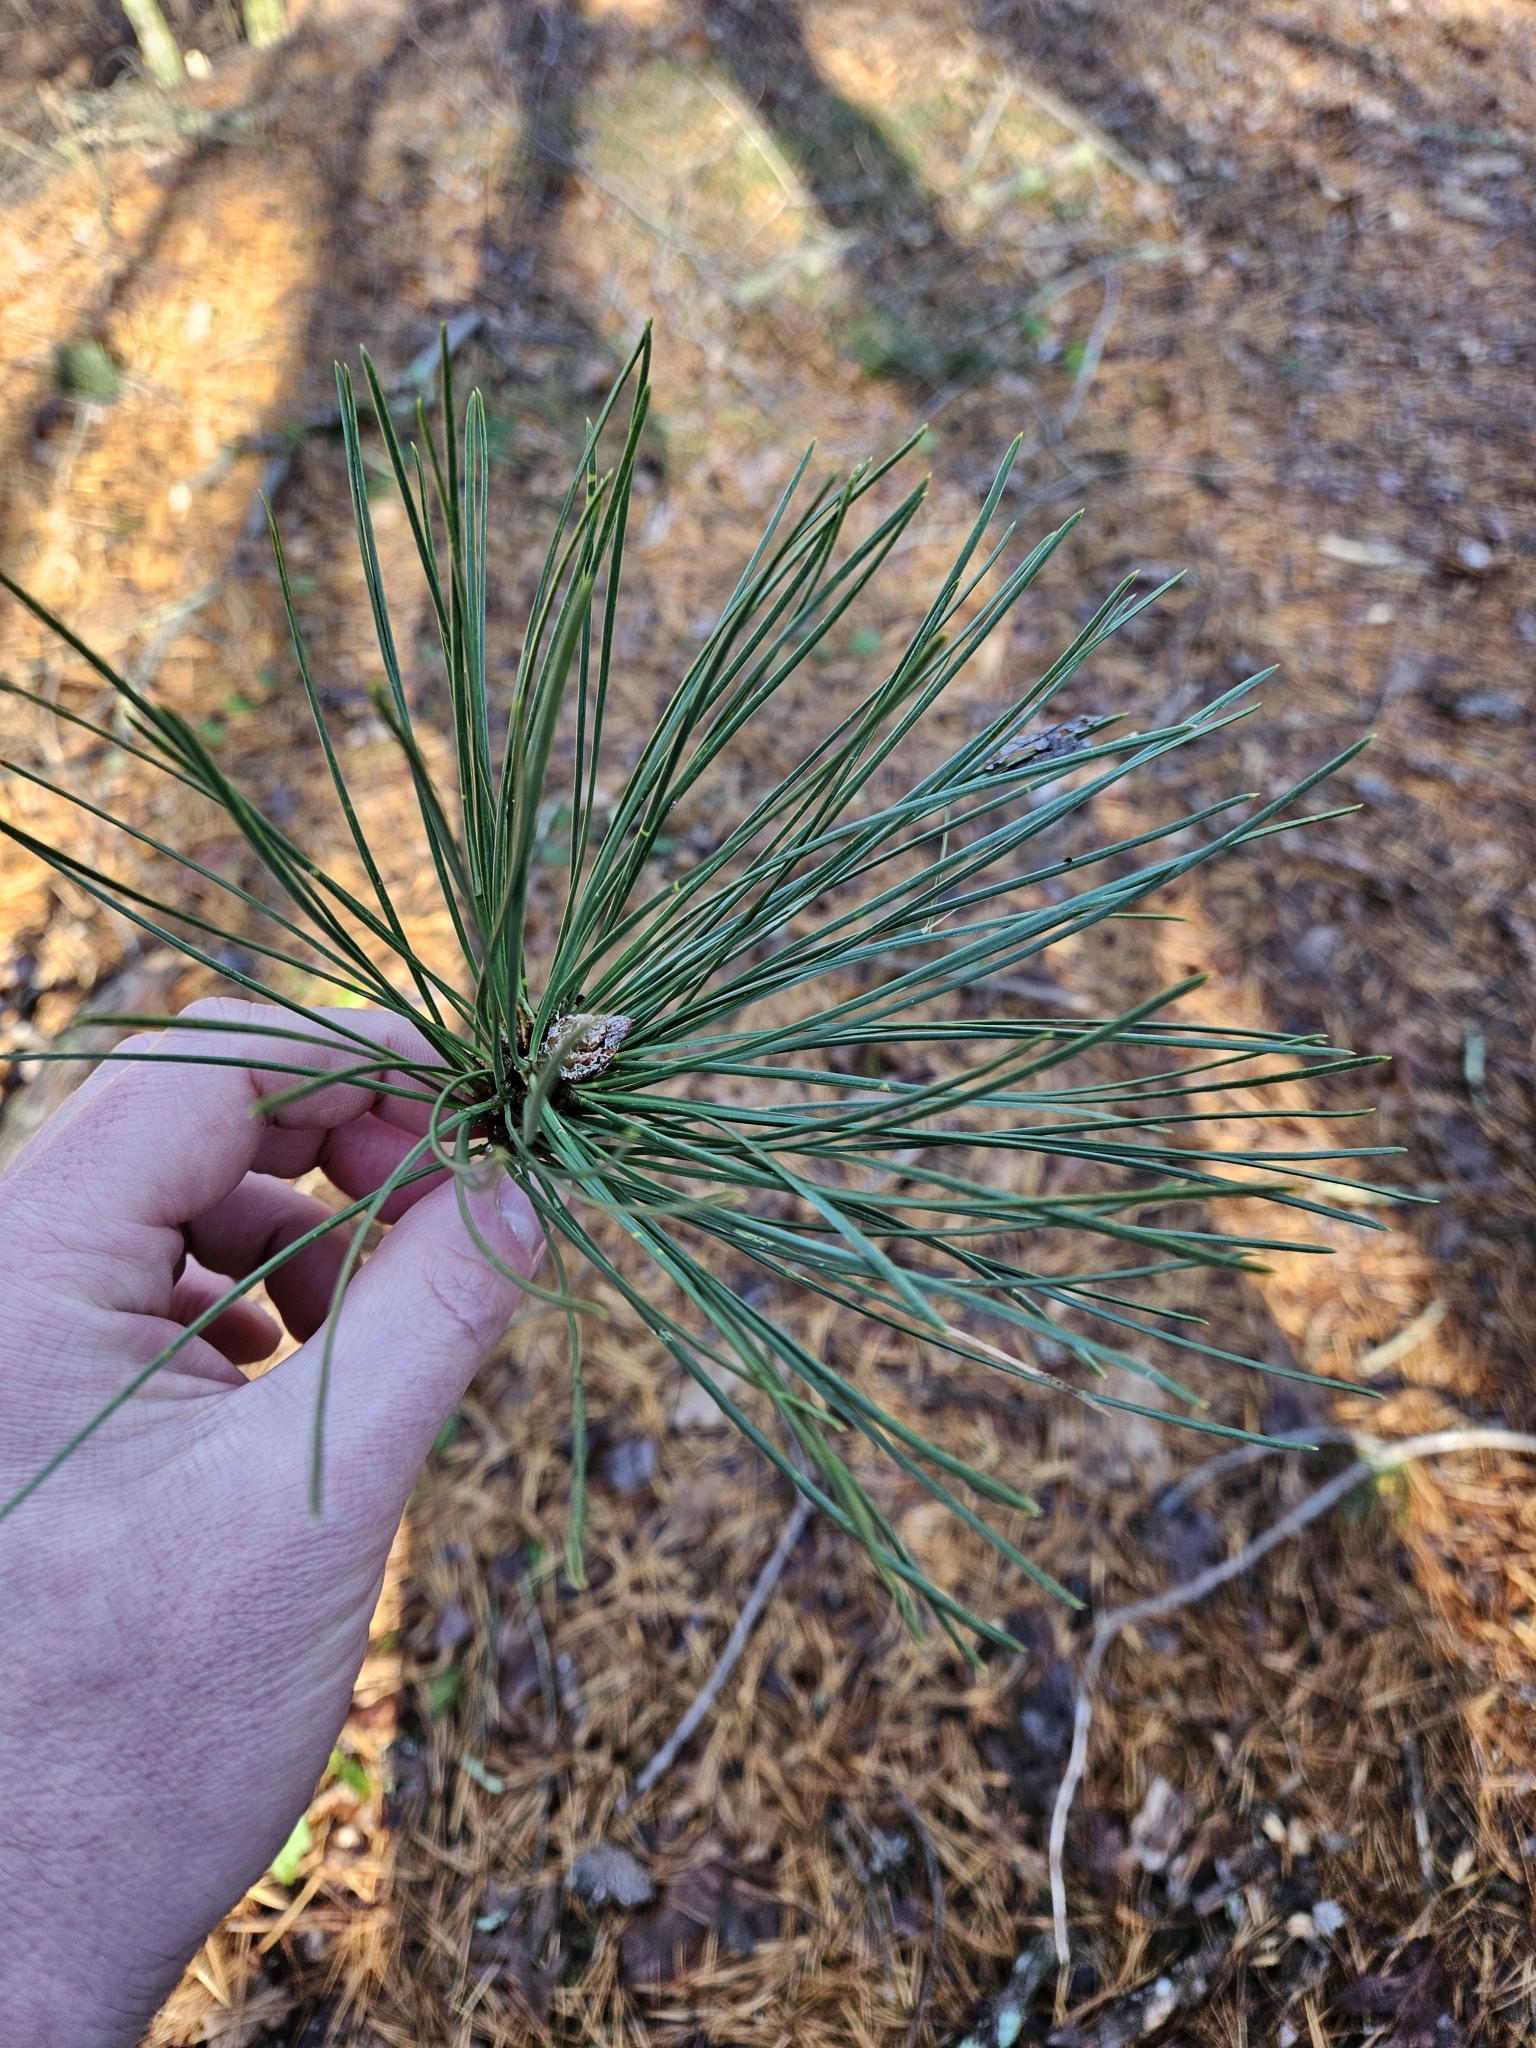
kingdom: Plantae
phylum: Tracheophyta
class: Pinopsida
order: Pinales
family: Pinaceae
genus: Pinus
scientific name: Pinus rigida
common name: Pitch pine
